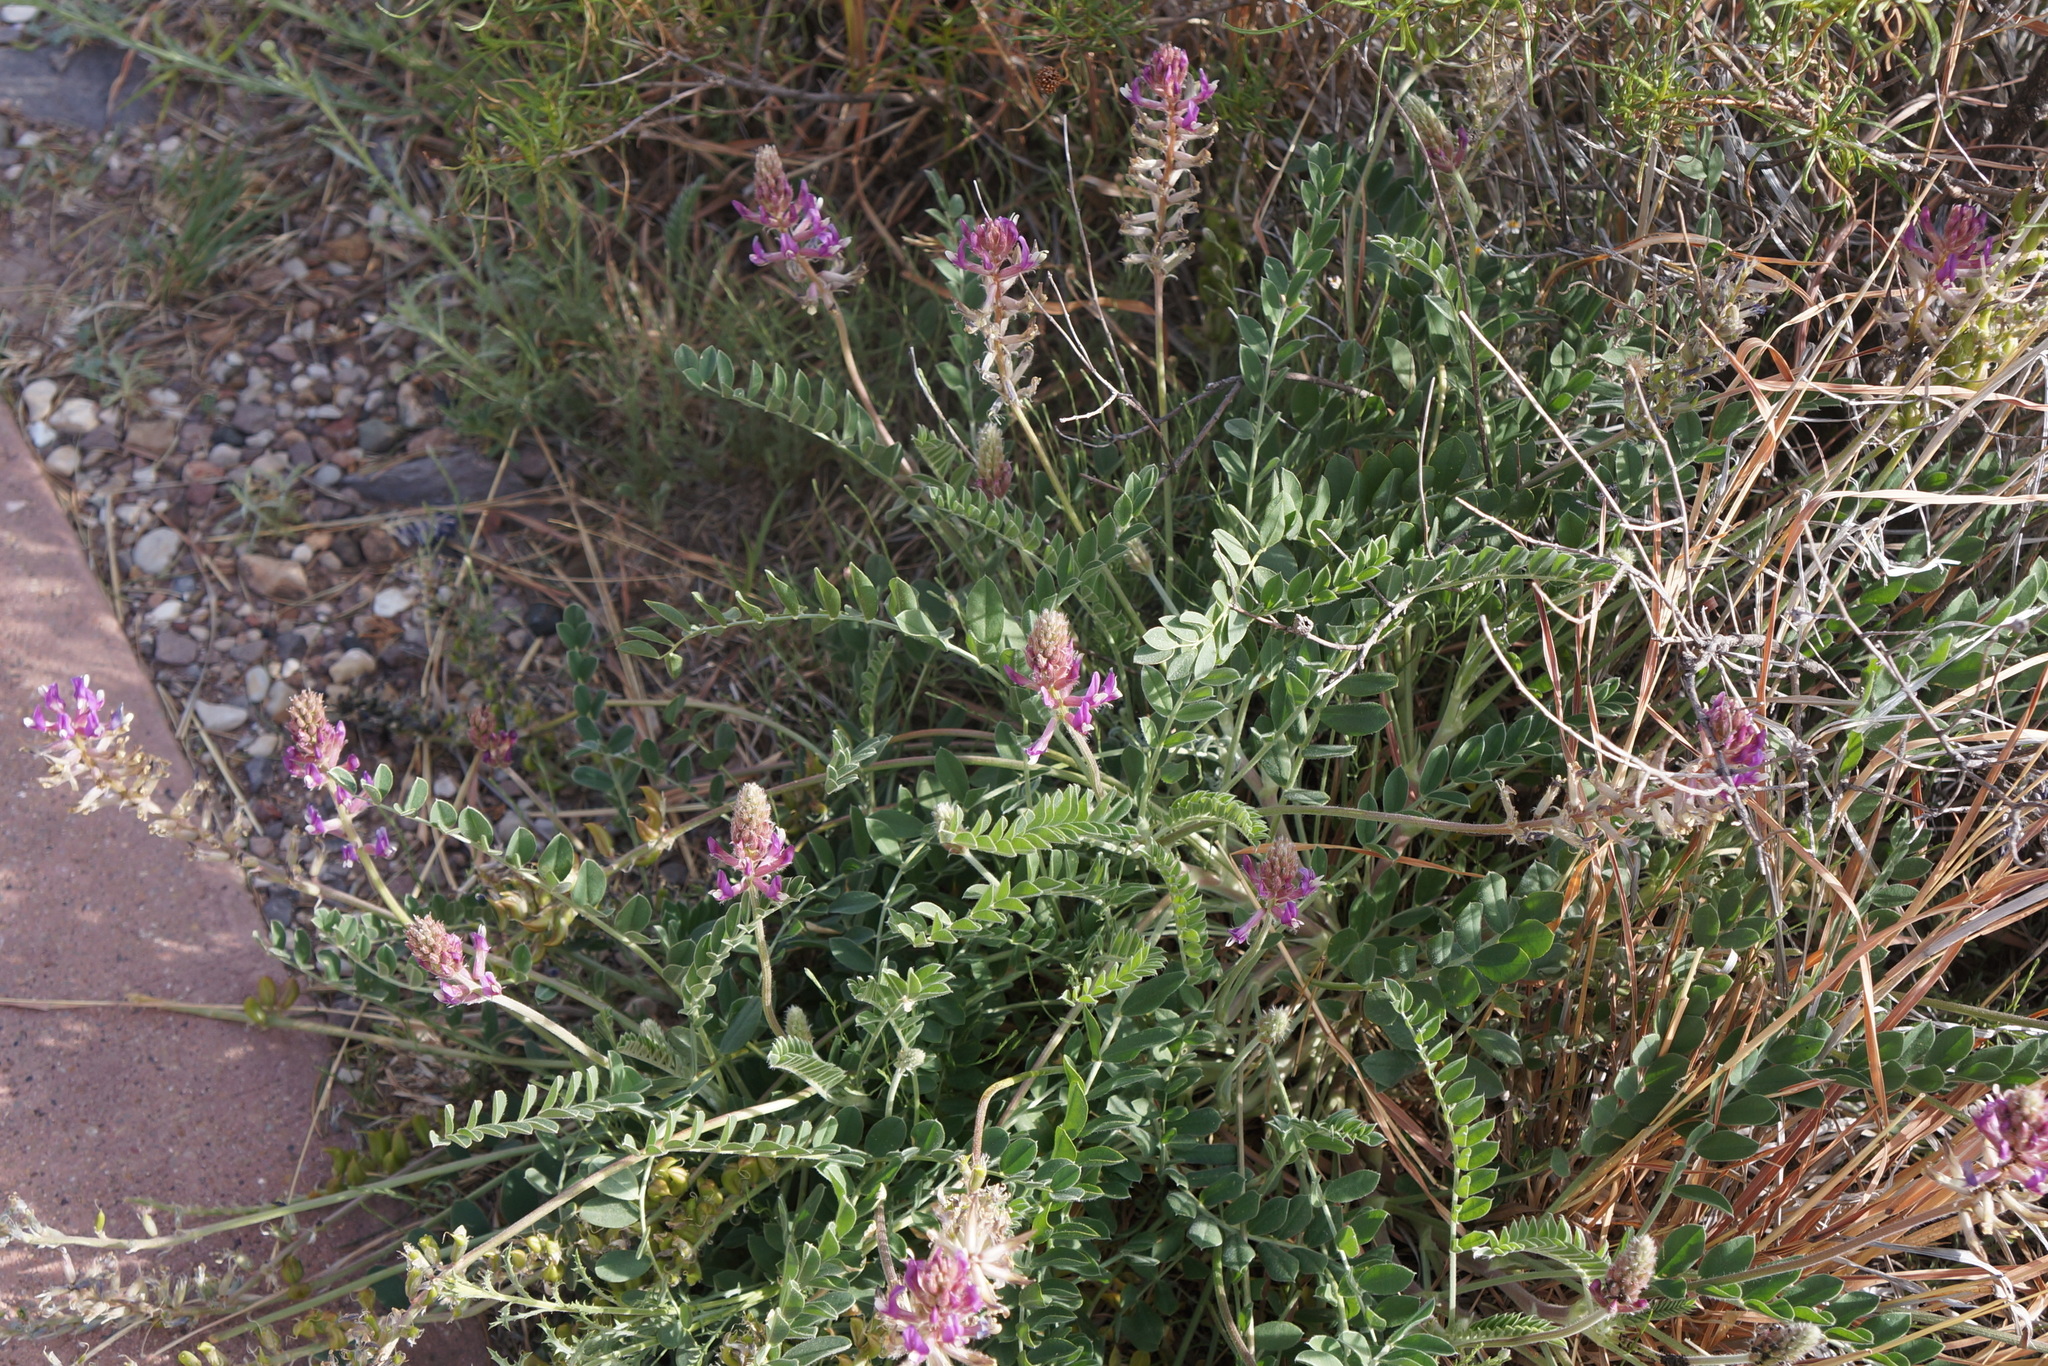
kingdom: Plantae
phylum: Tracheophyta
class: Magnoliopsida
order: Fabales
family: Fabaceae
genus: Astragalus
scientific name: Astragalus mollissimus
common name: Woolly locoweed
